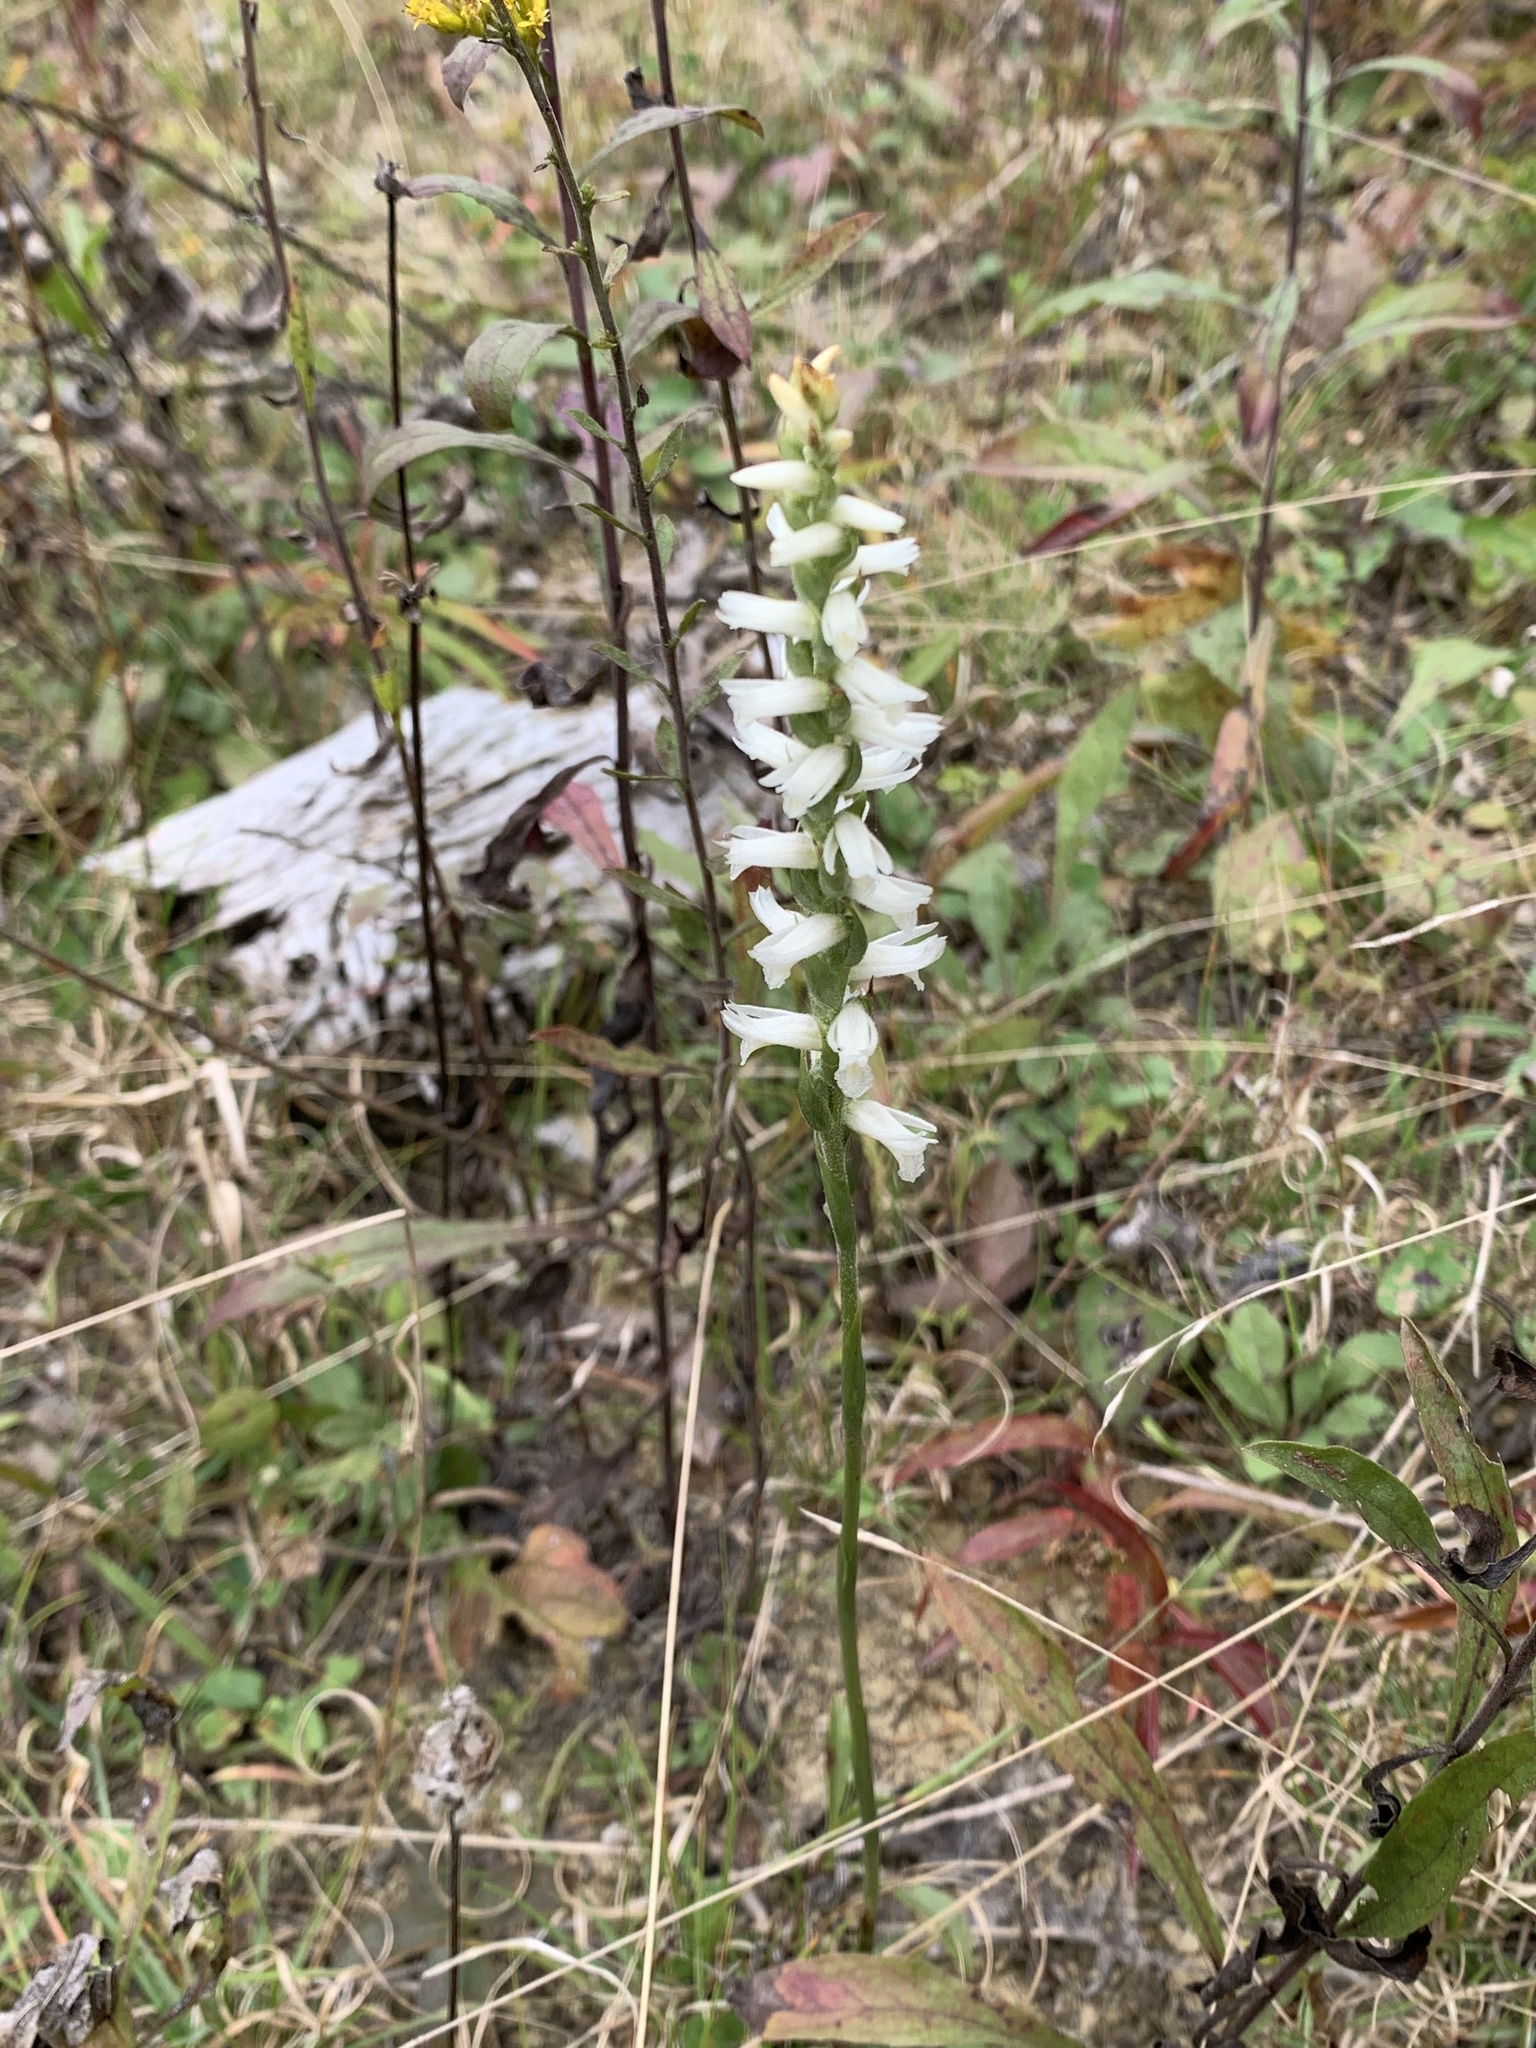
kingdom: Plantae
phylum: Tracheophyta
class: Liliopsida
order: Asparagales
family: Orchidaceae
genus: Spiranthes
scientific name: Spiranthes magnicamporum
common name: Great plains ladies'-tresses
